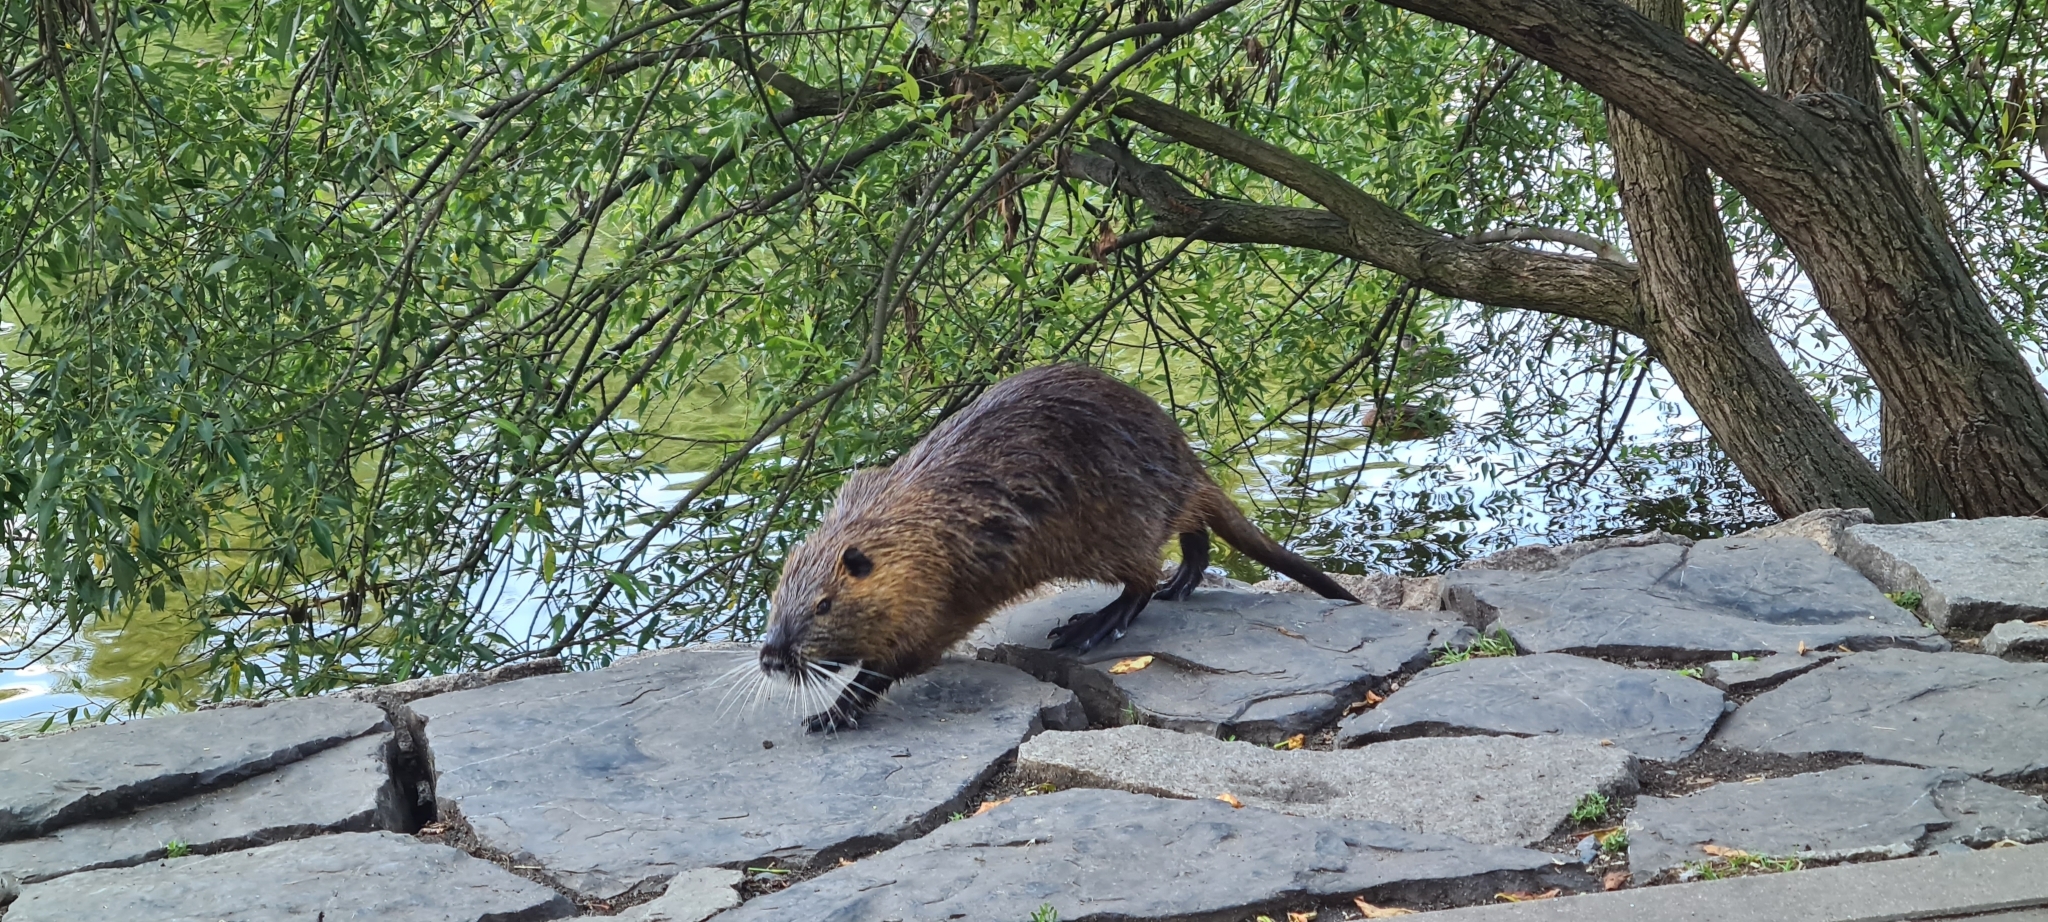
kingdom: Animalia
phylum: Chordata
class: Mammalia
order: Rodentia
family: Myocastoridae
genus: Myocastor
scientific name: Myocastor coypus
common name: Coypu
